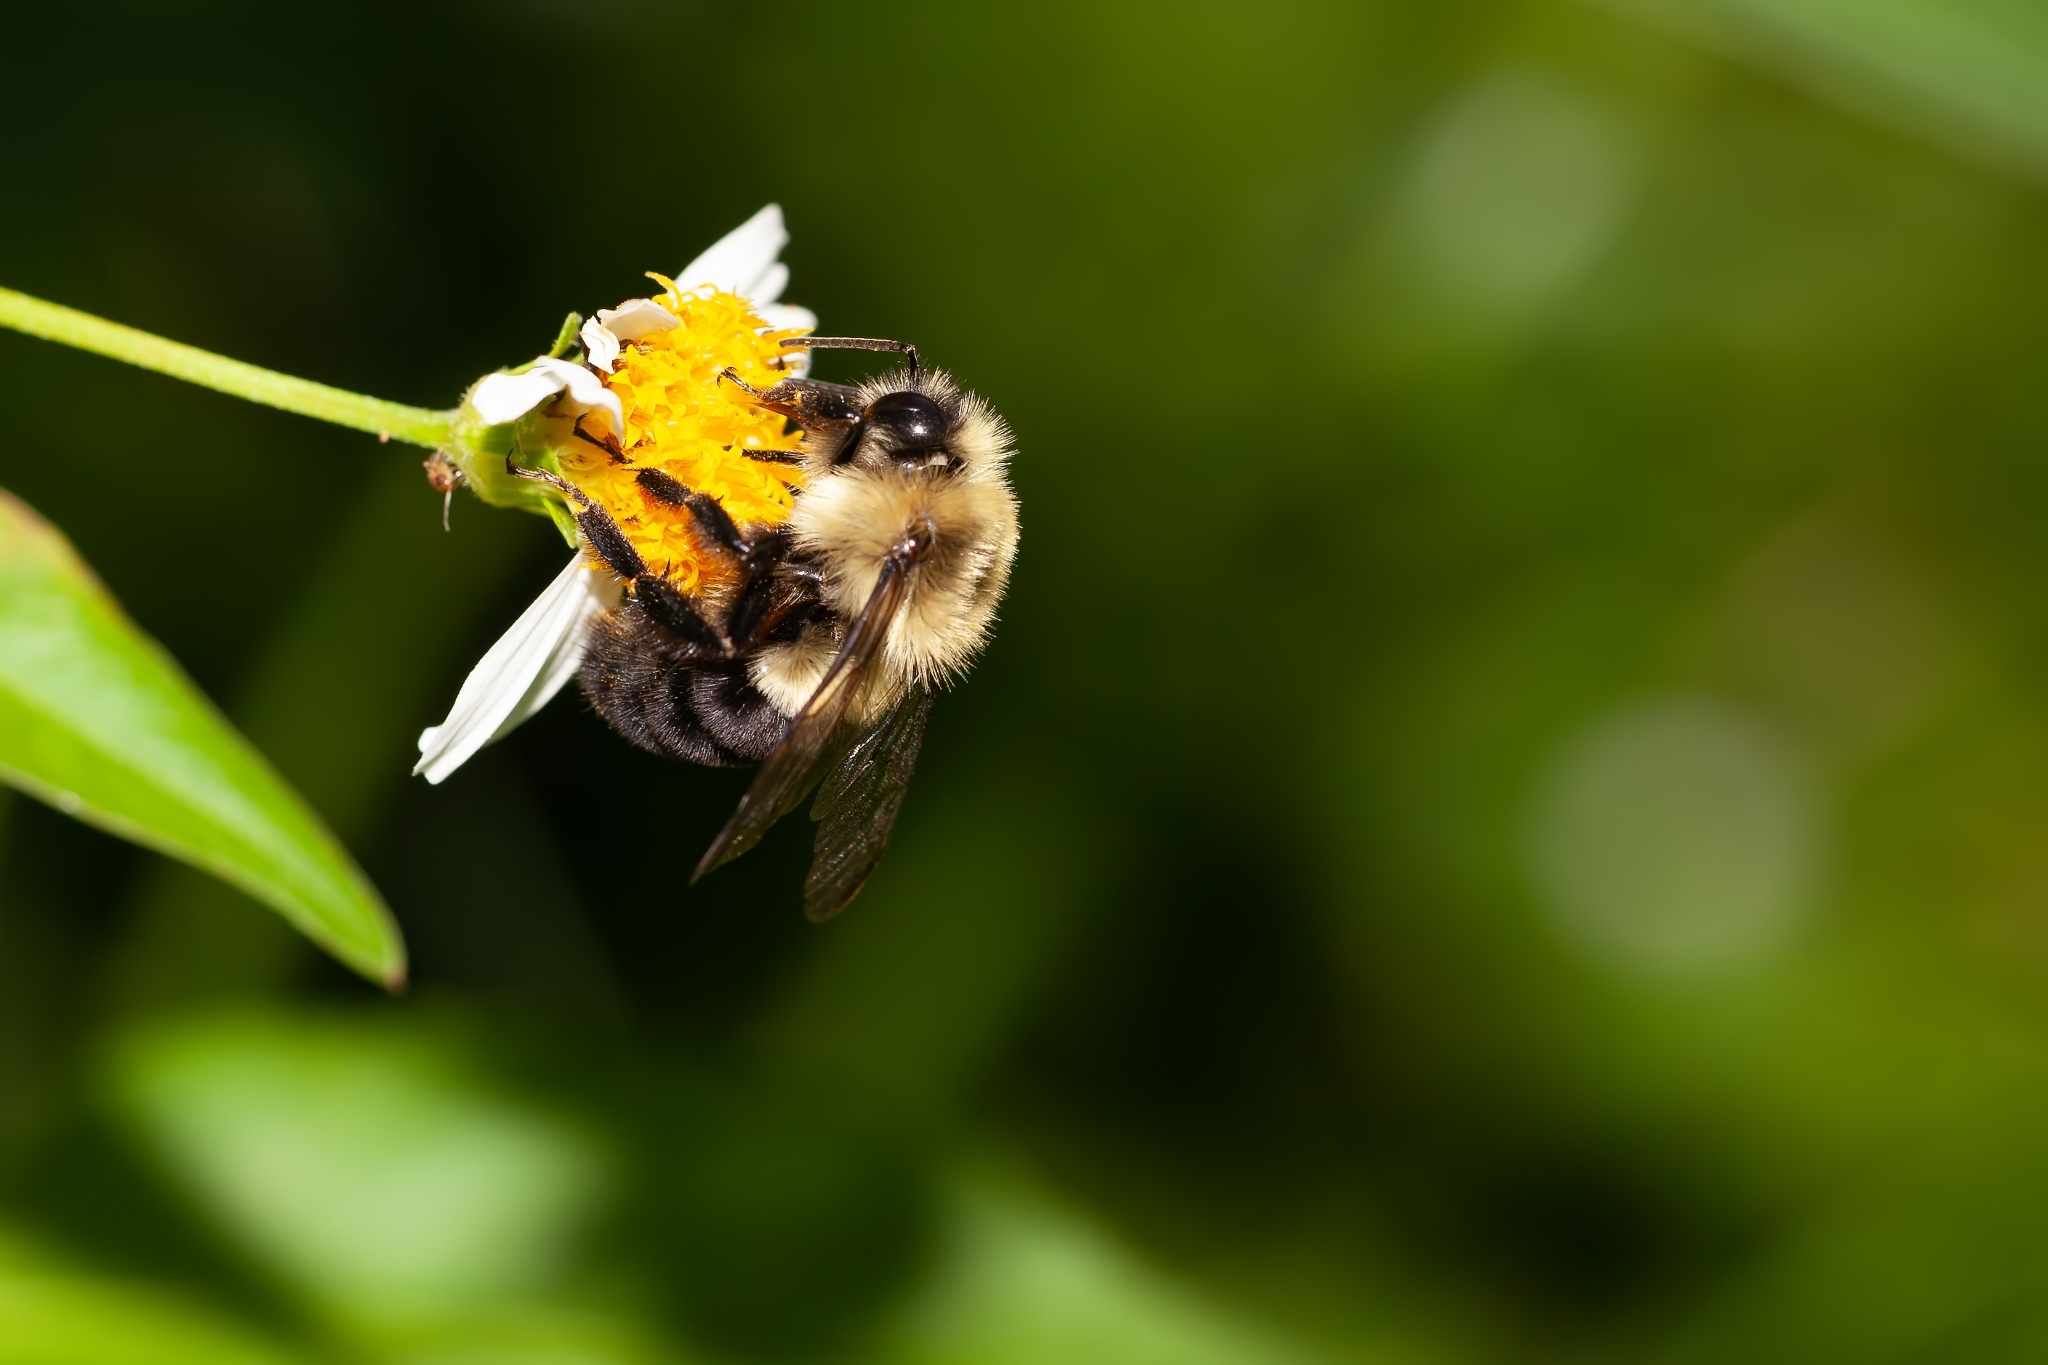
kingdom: Animalia
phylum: Arthropoda
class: Insecta
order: Hymenoptera
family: Apidae
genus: Bombus
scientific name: Bombus impatiens
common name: Common eastern bumble bee
